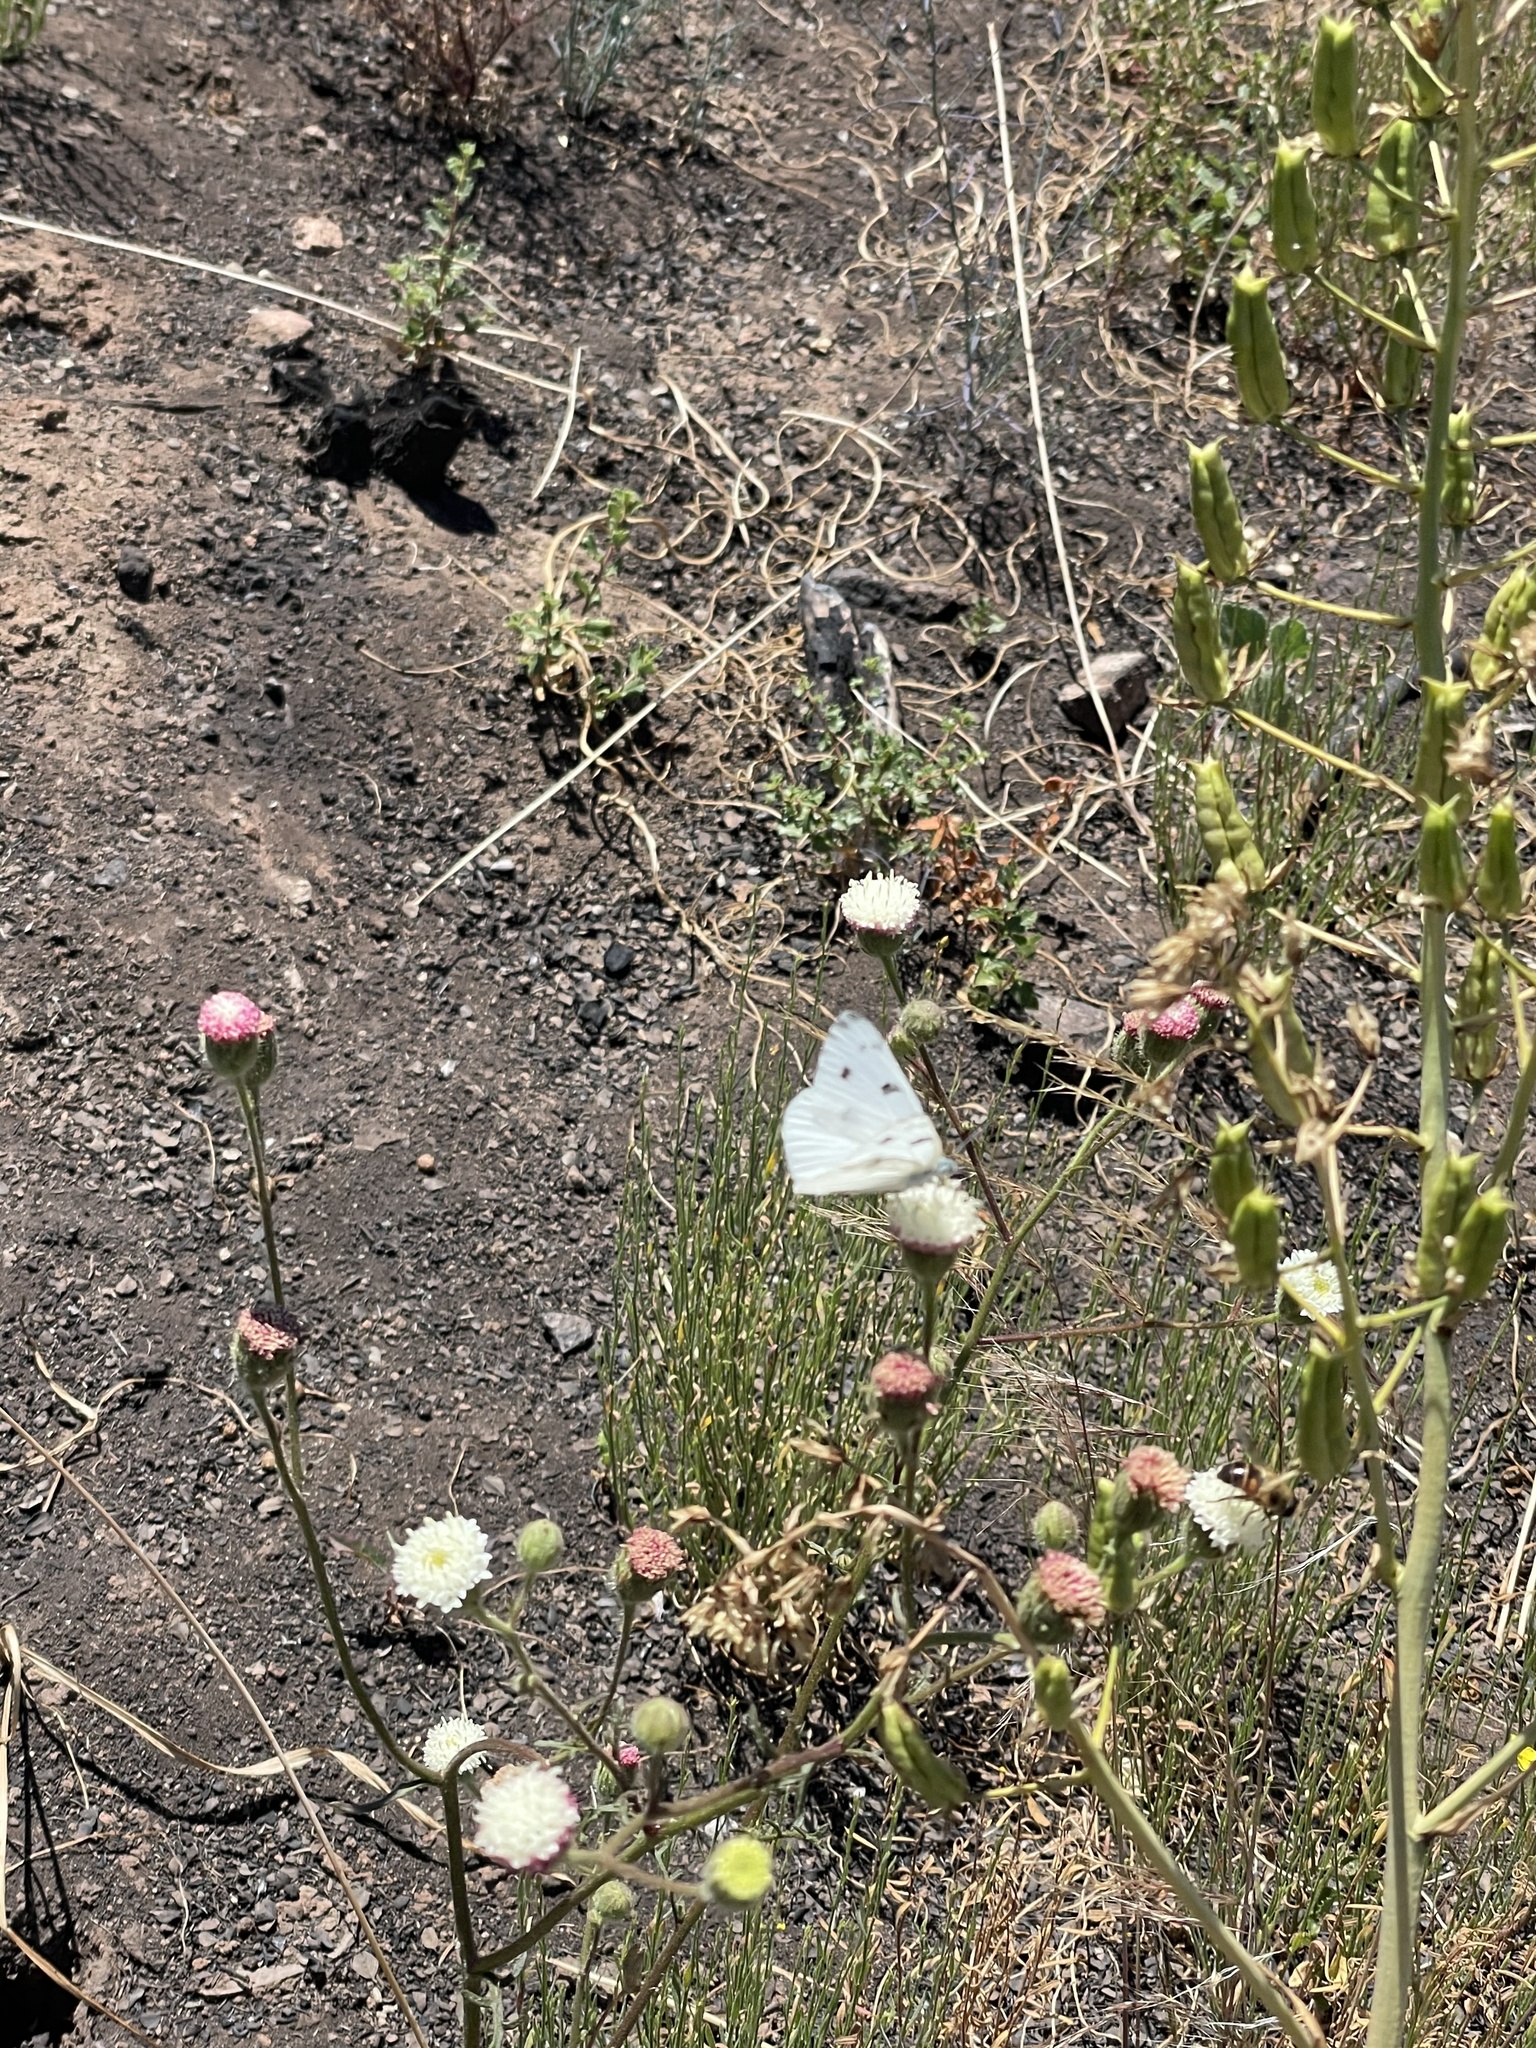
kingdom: Animalia
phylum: Arthropoda
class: Insecta
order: Lepidoptera
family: Pieridae
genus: Pontia
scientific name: Pontia protodice
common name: Checkered white
